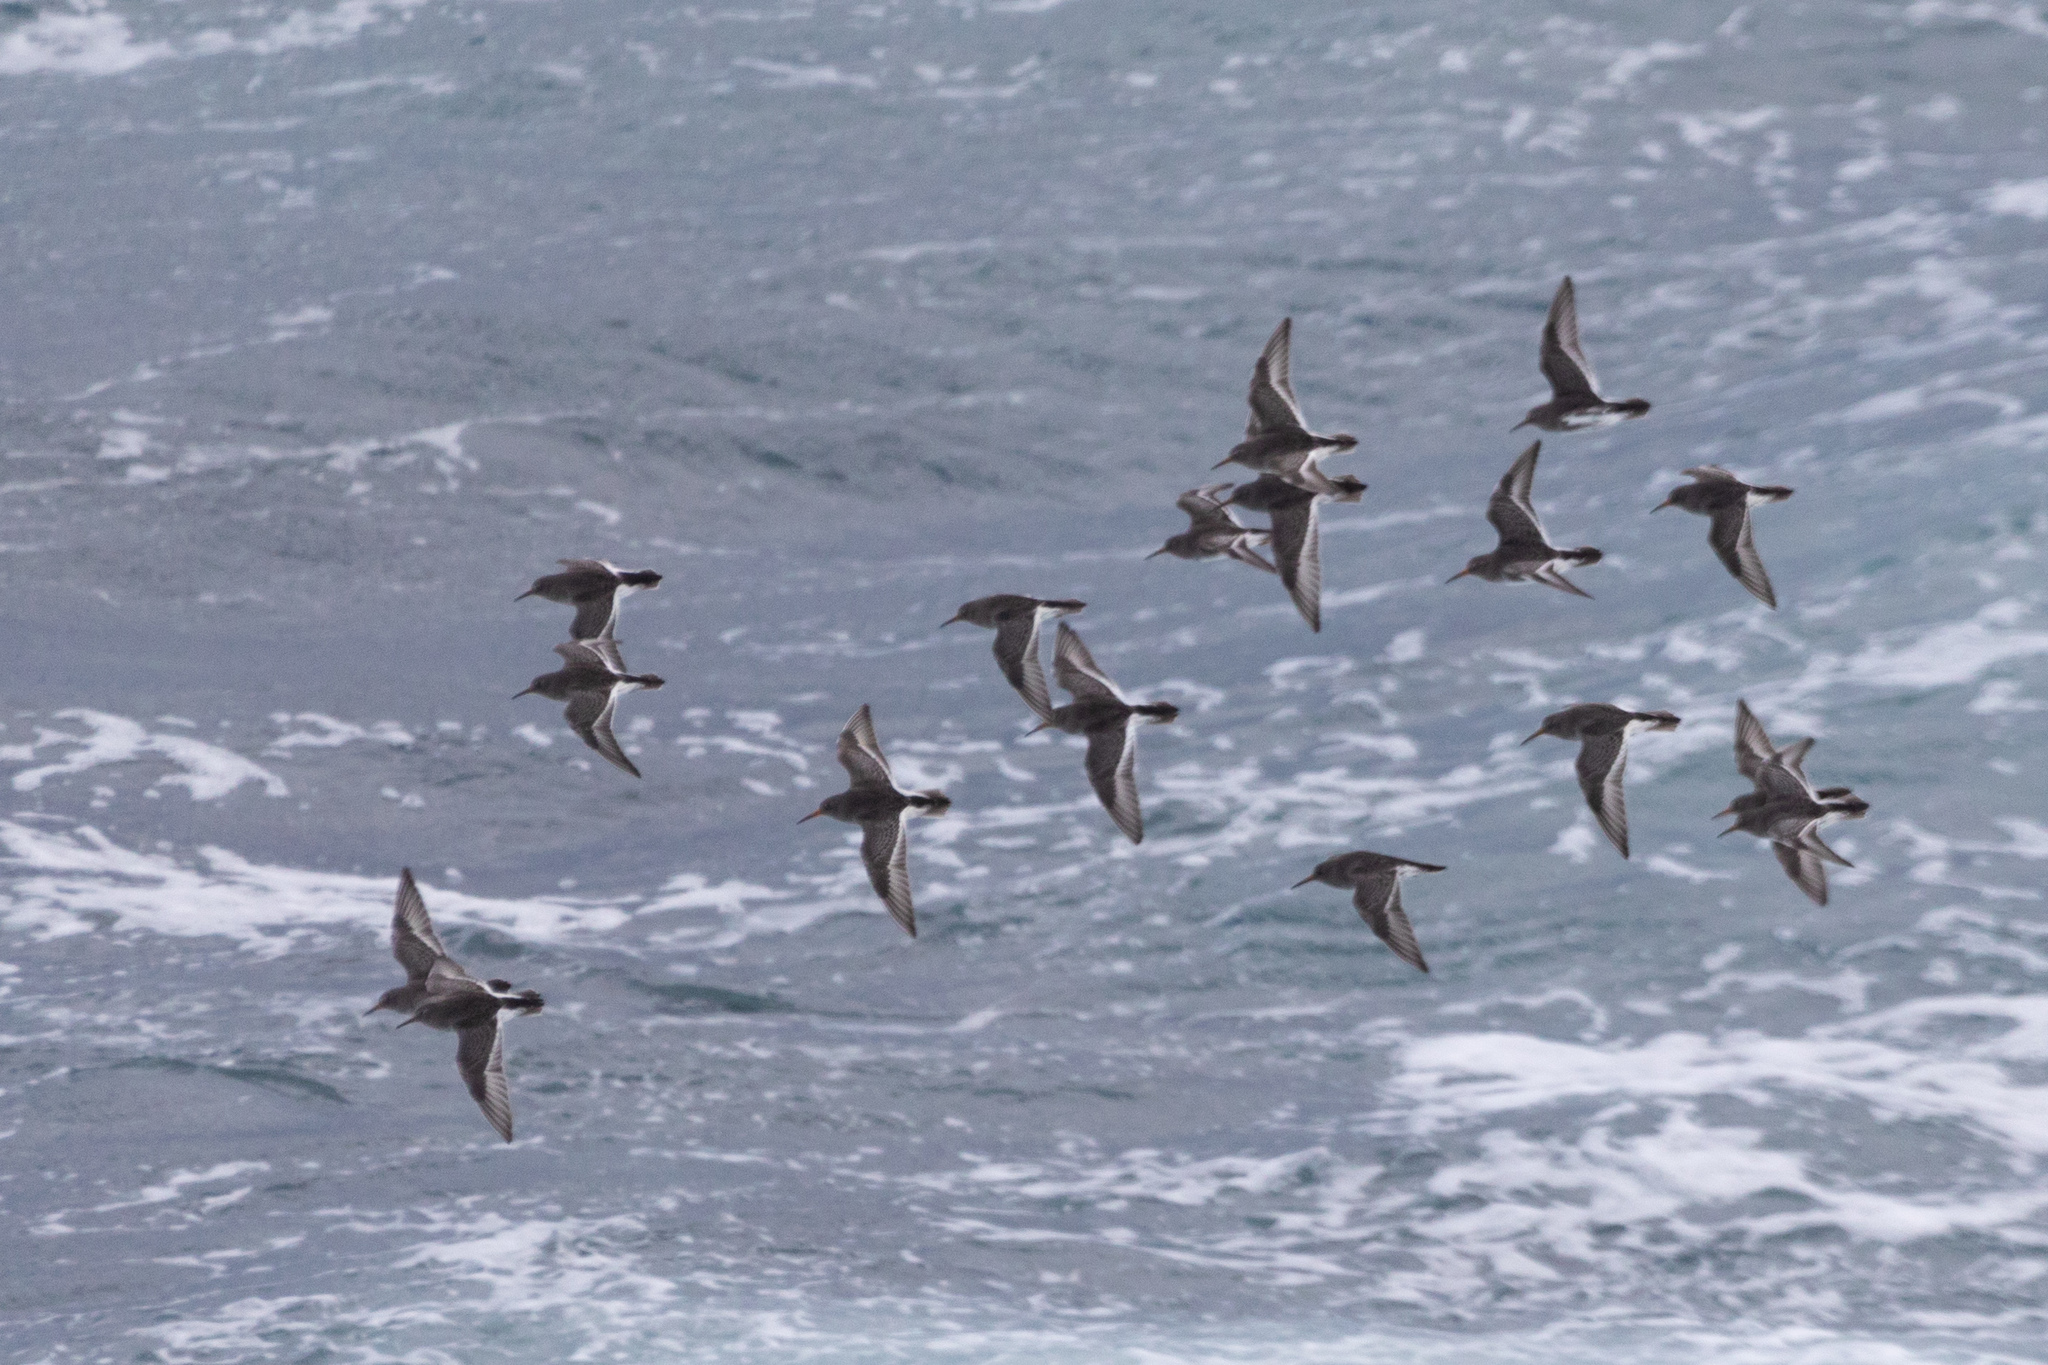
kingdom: Animalia
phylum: Chordata
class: Aves
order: Charadriiformes
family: Scolopacidae
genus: Calidris
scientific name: Calidris maritima
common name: Purple sandpiper
